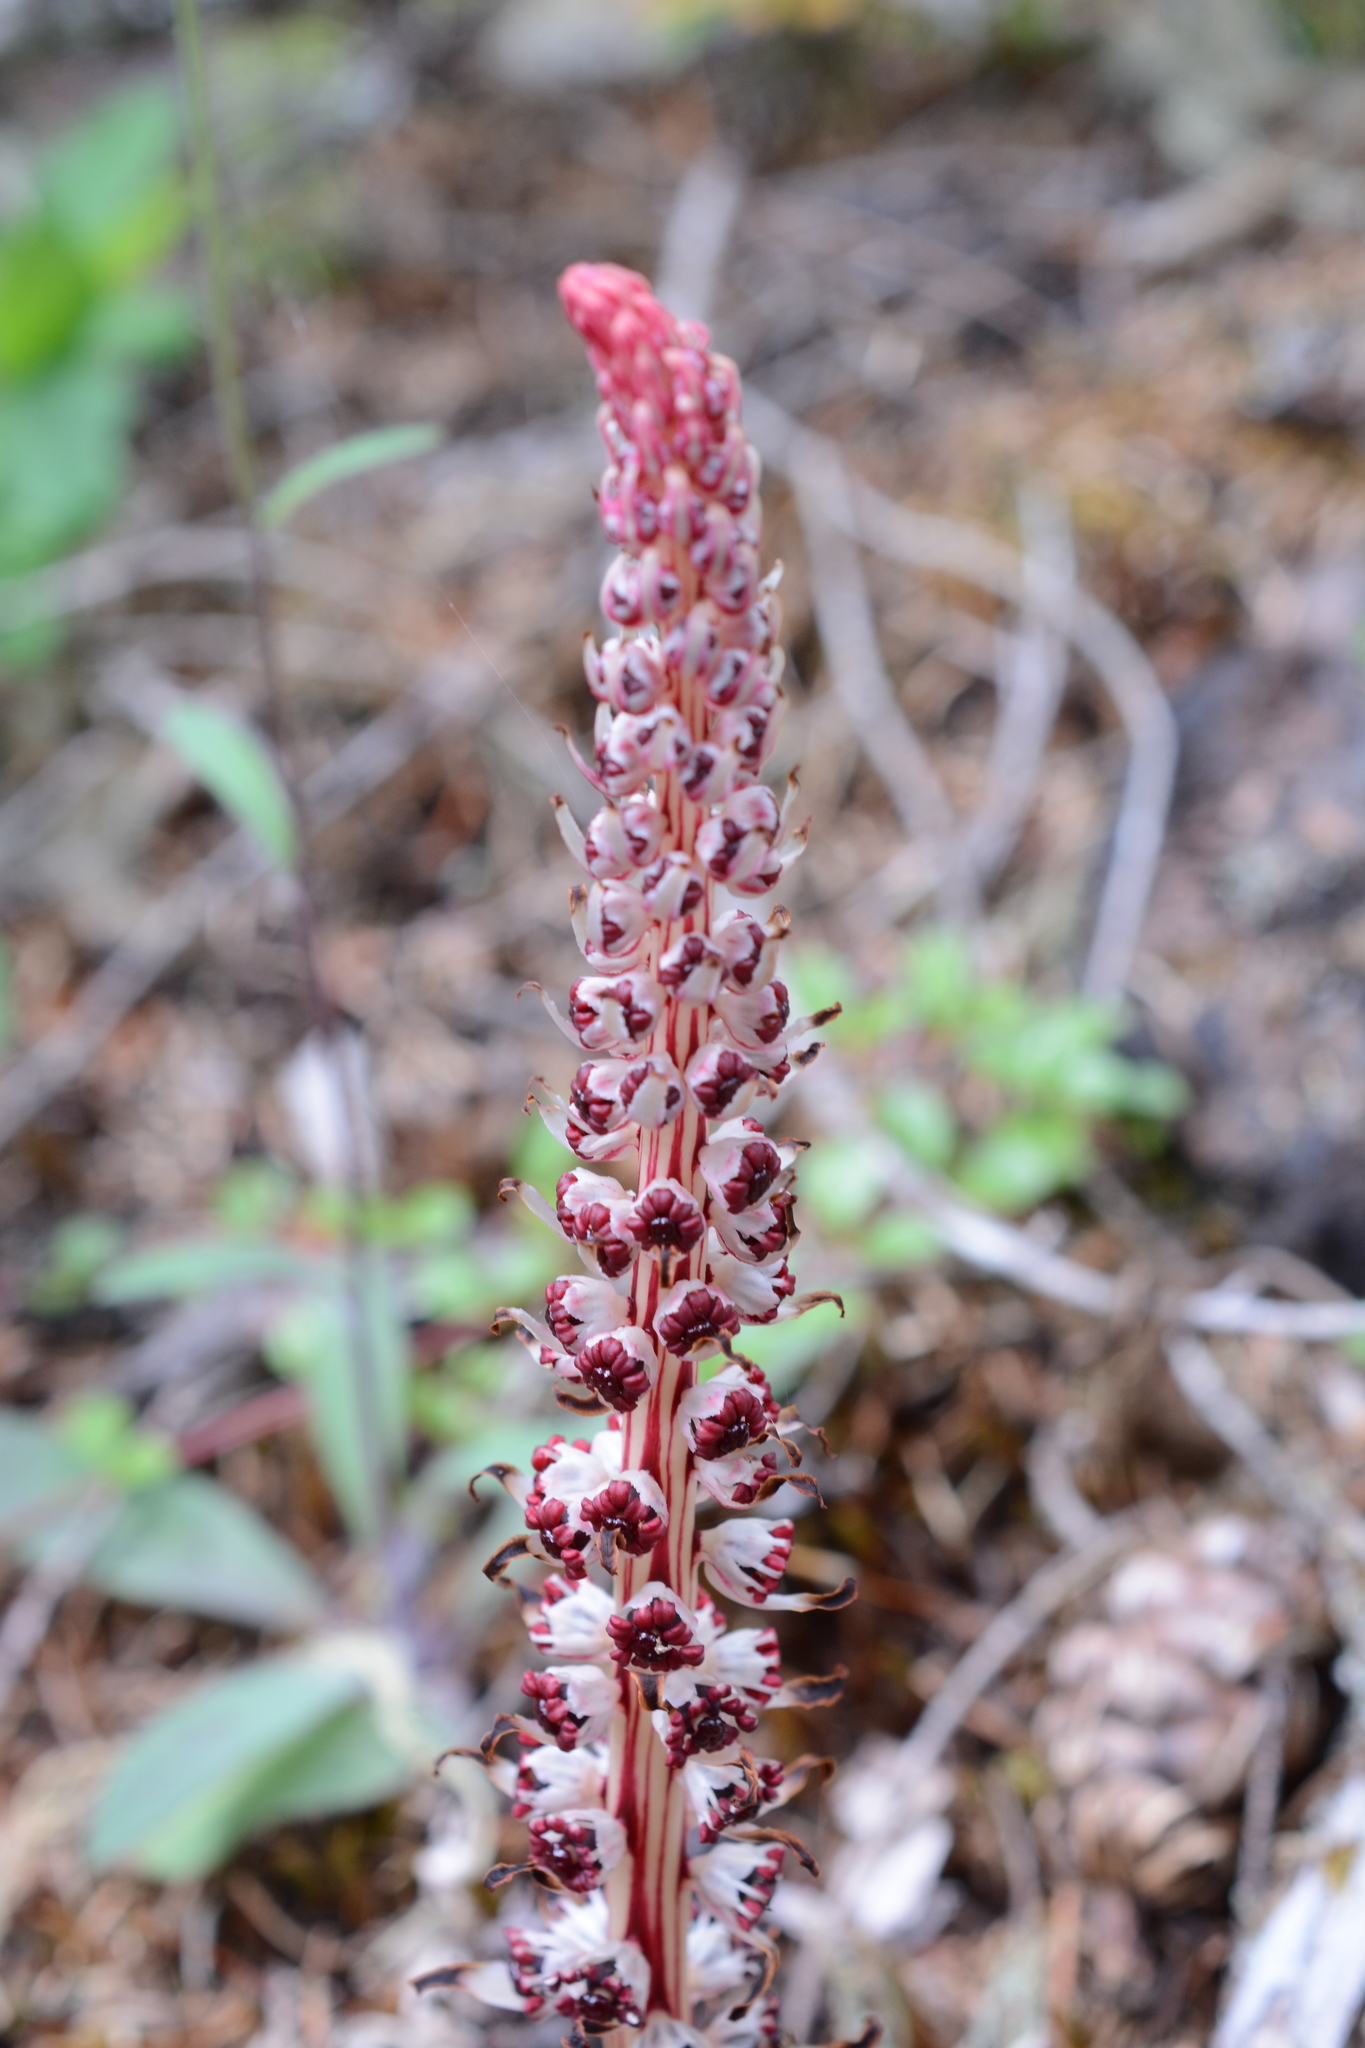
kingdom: Plantae
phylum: Tracheophyta
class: Magnoliopsida
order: Ericales
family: Ericaceae
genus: Allotropa
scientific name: Allotropa virgata
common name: Candy-striped allotropa
